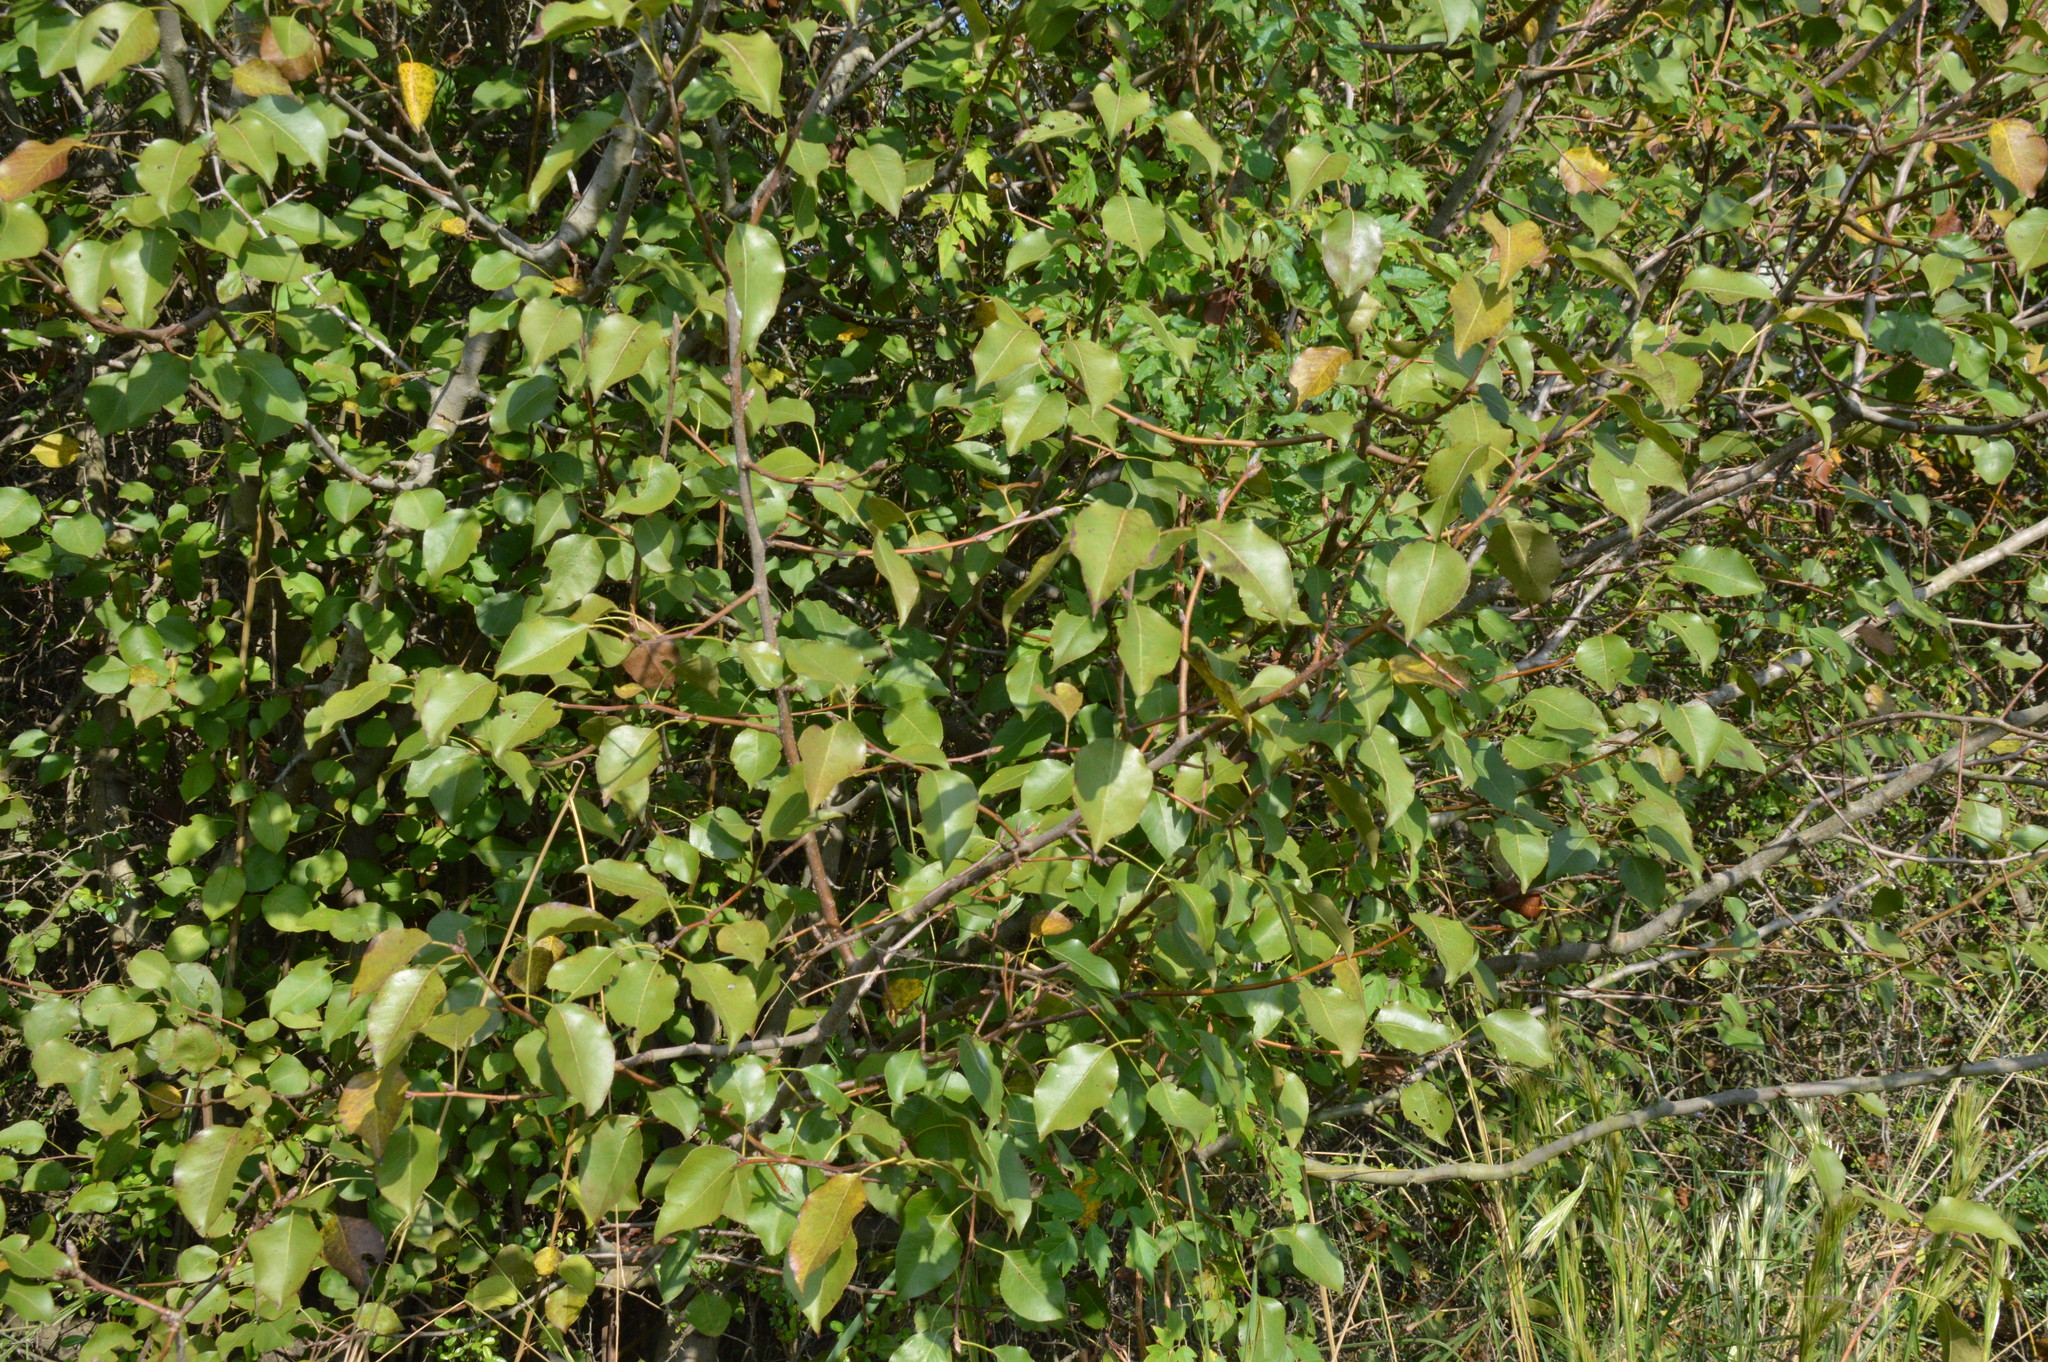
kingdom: Plantae
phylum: Tracheophyta
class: Magnoliopsida
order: Rosales
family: Rosaceae
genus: Pyrus
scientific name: Pyrus calleryana
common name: Callery pear
